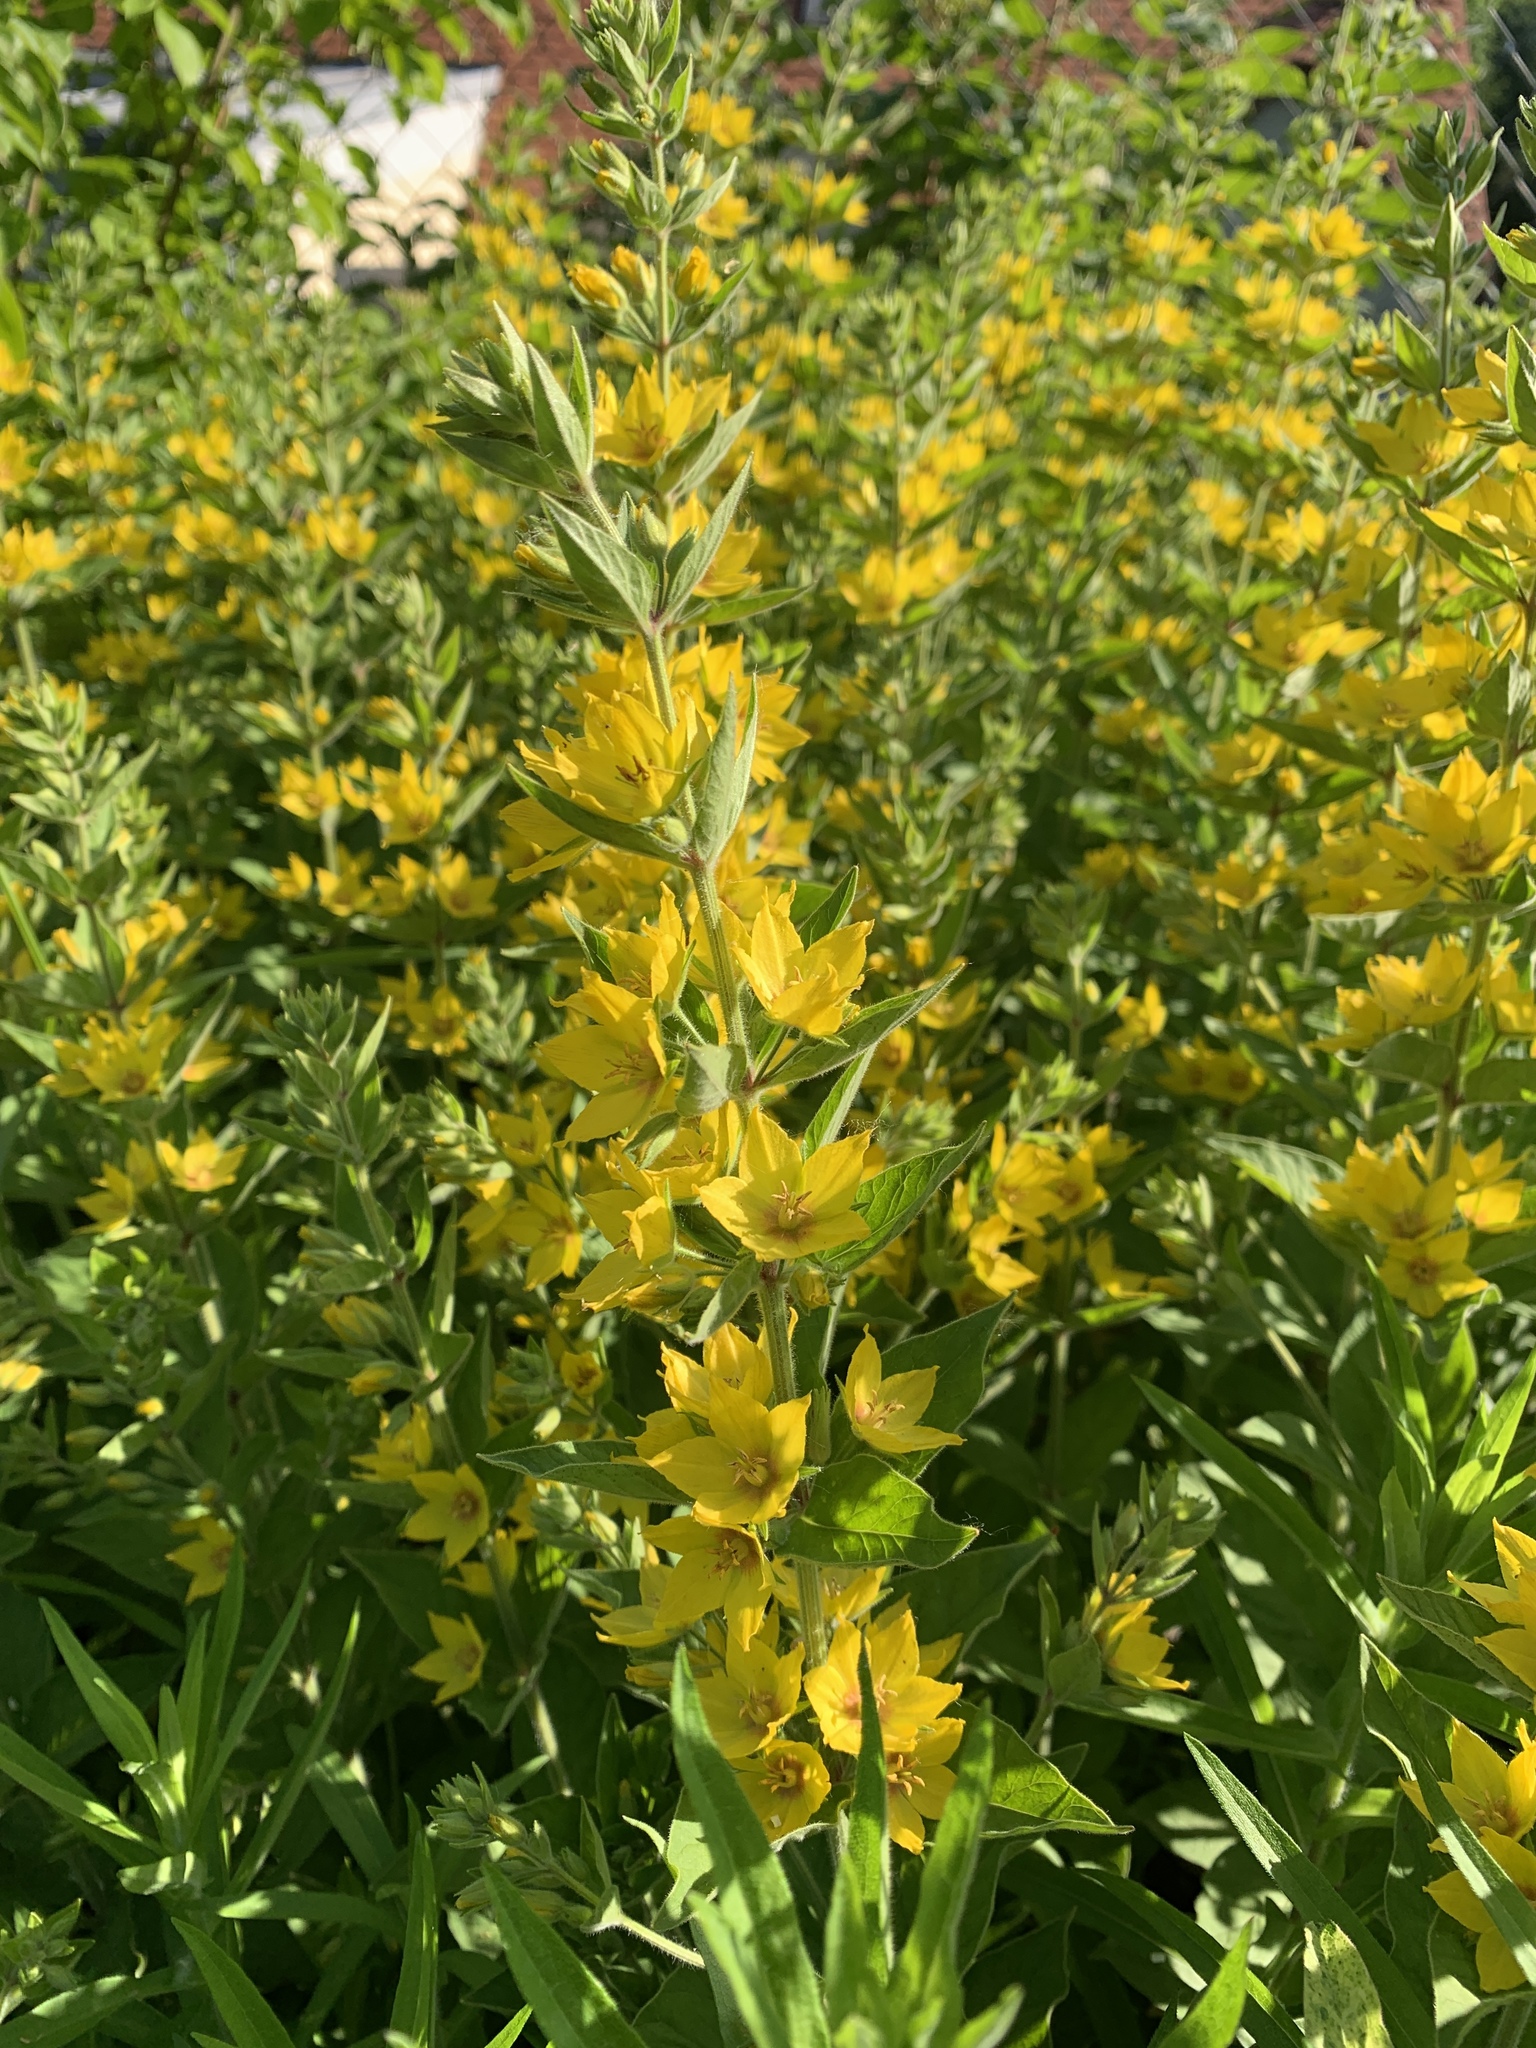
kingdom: Plantae
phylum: Tracheophyta
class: Magnoliopsida
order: Ericales
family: Primulaceae
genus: Lysimachia
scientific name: Lysimachia punctata
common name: Dotted loosestrife
